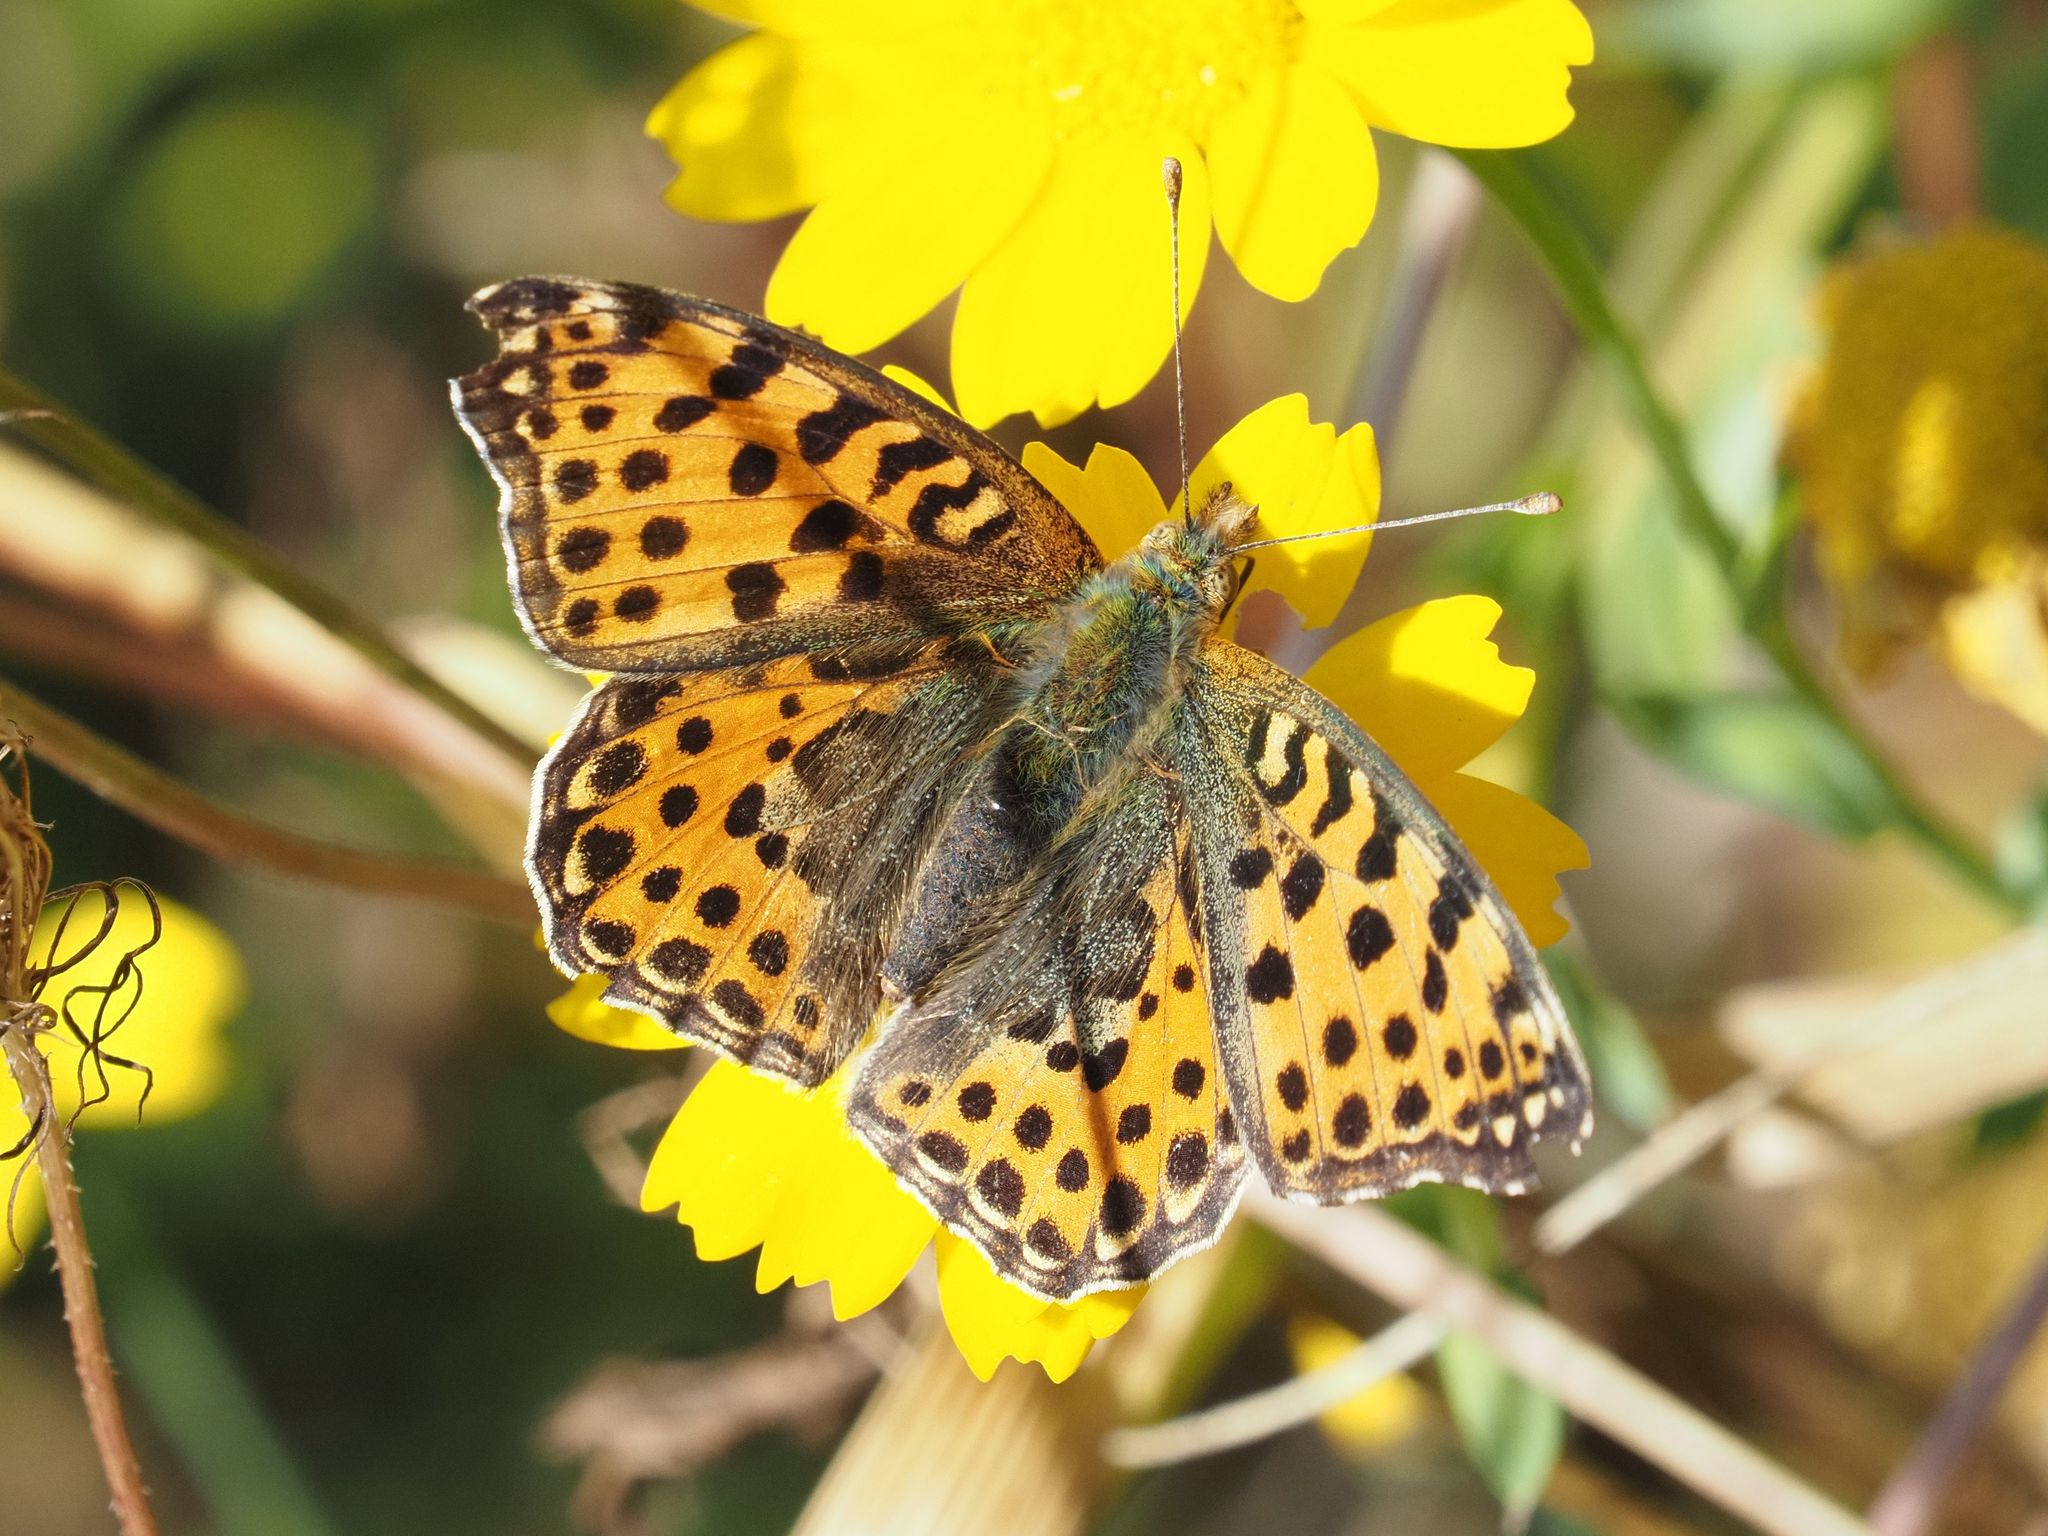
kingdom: Animalia
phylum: Arthropoda
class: Insecta
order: Lepidoptera
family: Nymphalidae
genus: Issoria
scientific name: Issoria lathonia
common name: Queen of spain fritillary
